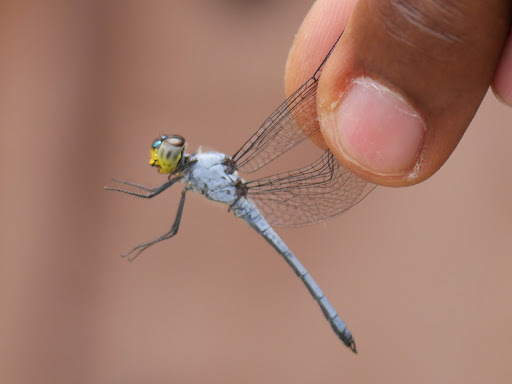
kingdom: Animalia
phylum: Arthropoda
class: Insecta
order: Odonata
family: Libellulidae
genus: Chalcostephia
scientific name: Chalcostephia flavifrons
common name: Inspector
